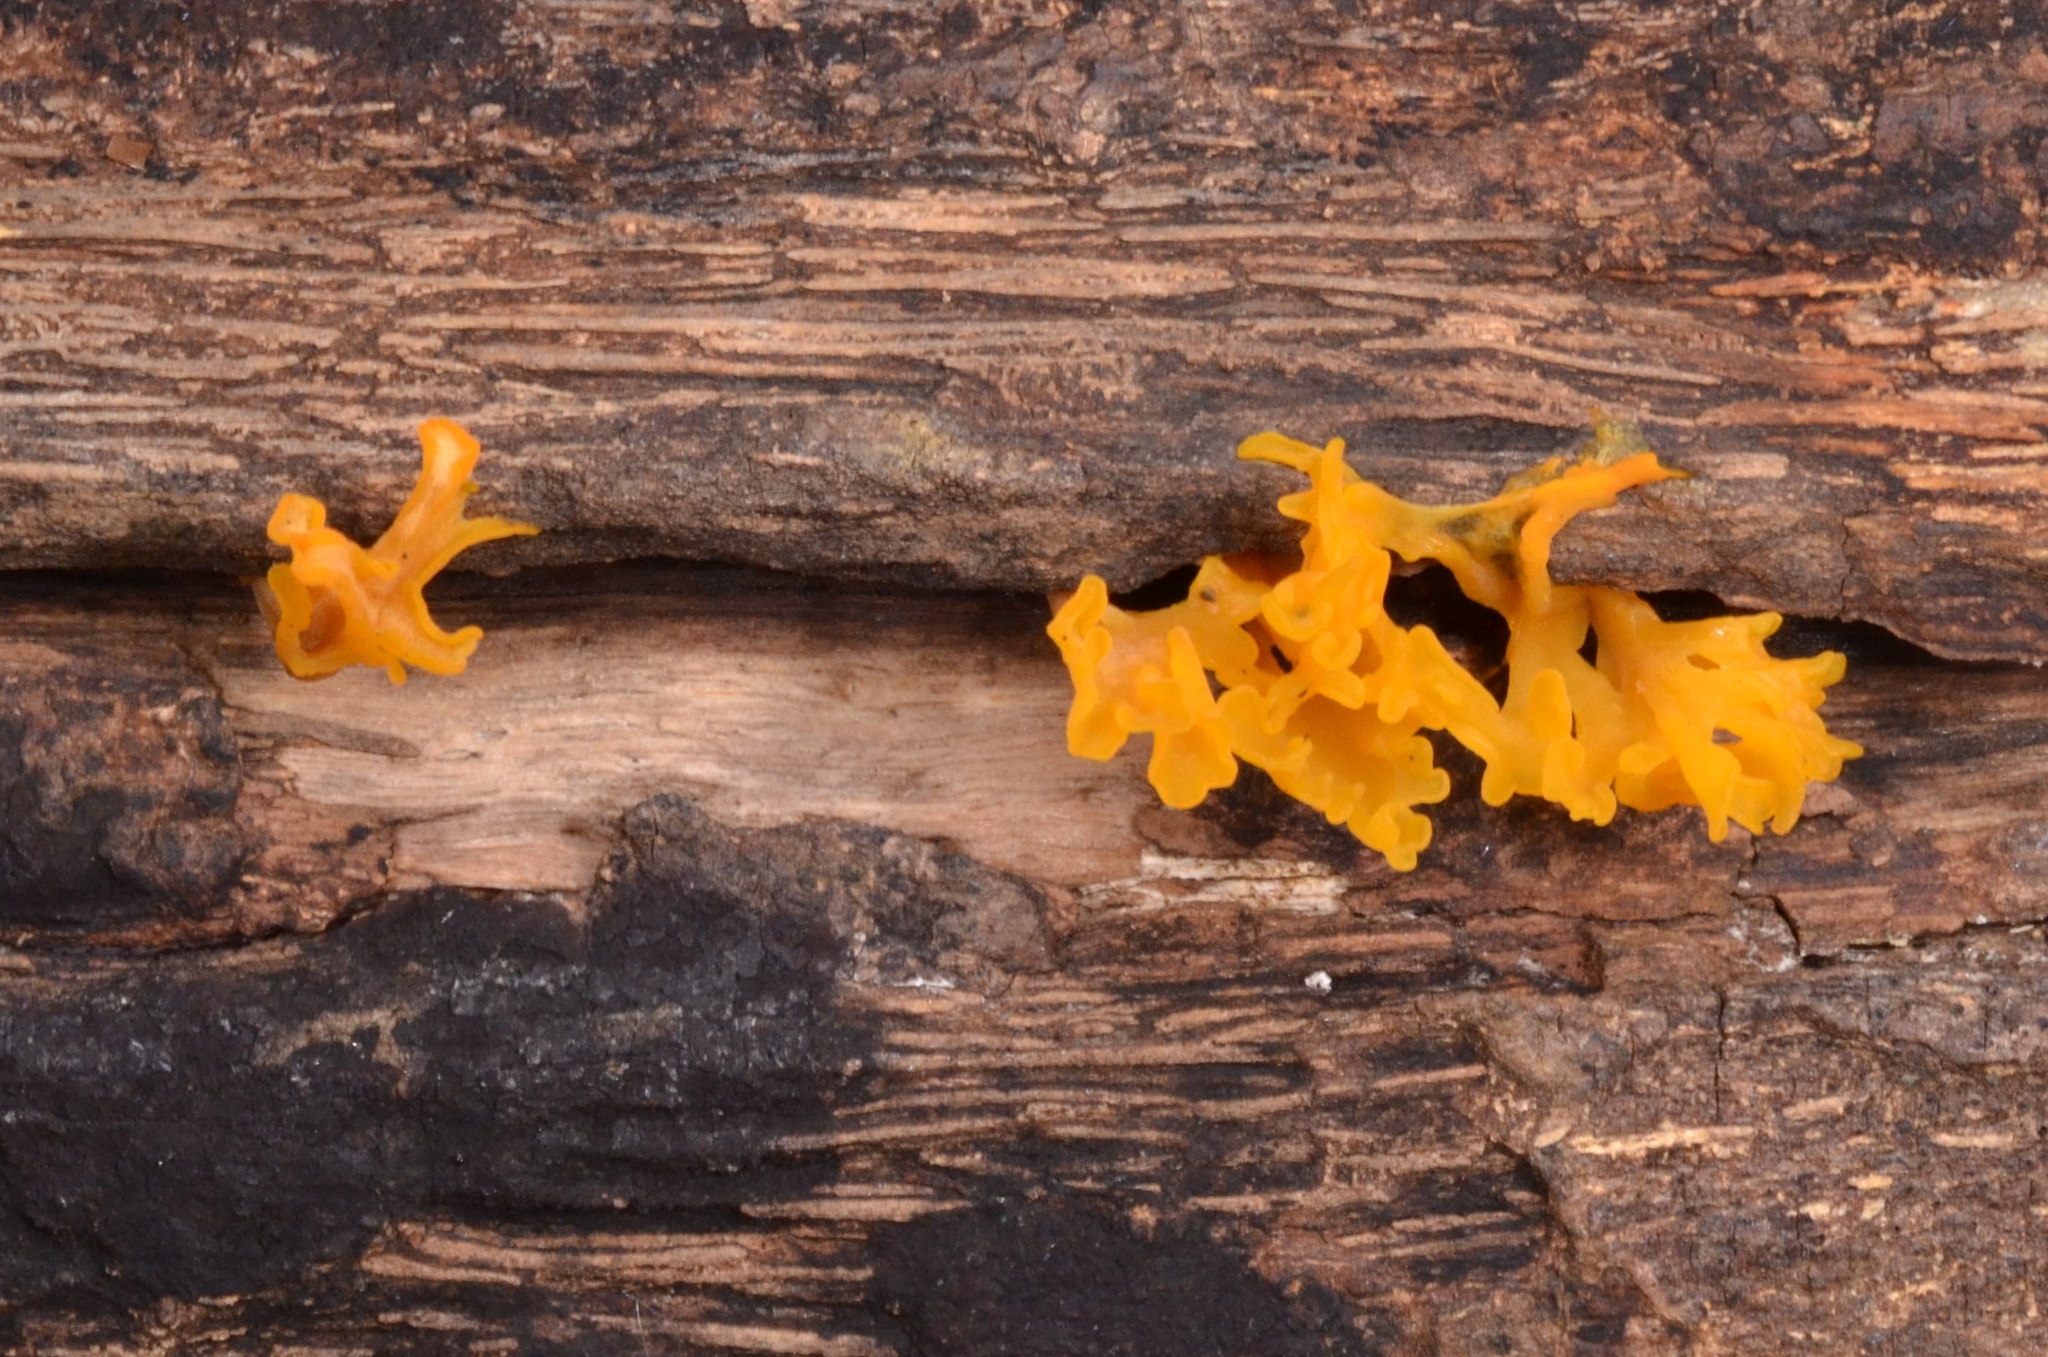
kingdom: Fungi
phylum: Basidiomycota
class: Dacrymycetes
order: Dacrymycetales
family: Dacrymycetaceae
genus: Dacrymyces
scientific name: Dacrymyces spathularius
